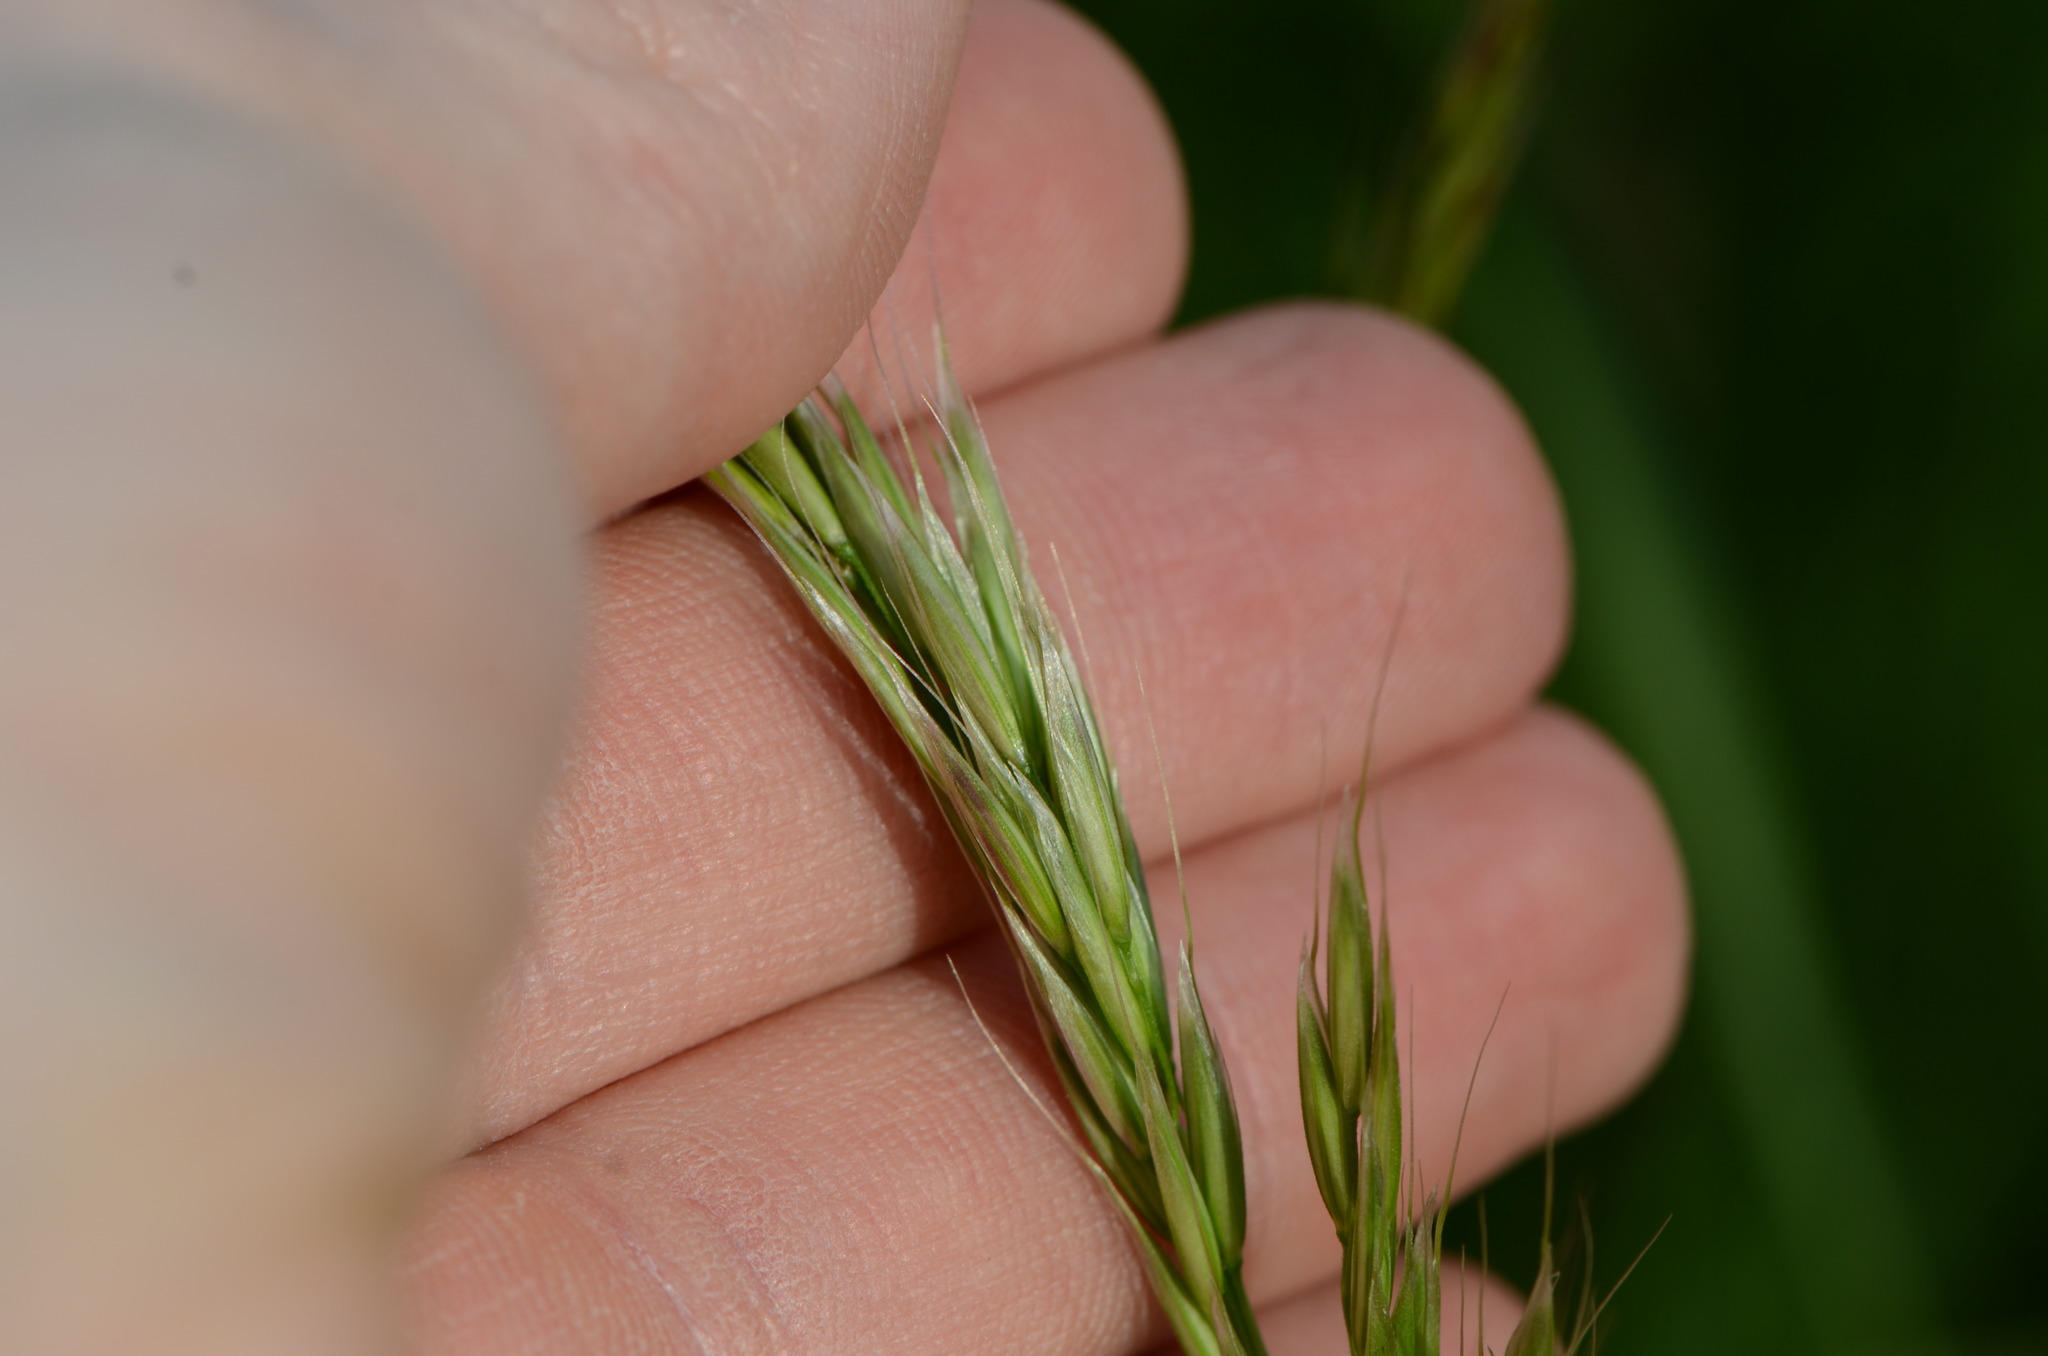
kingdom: Plantae
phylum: Tracheophyta
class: Liliopsida
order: Poales
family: Poaceae
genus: Arrhenatherum
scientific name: Arrhenatherum elatius
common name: Tall oatgrass
